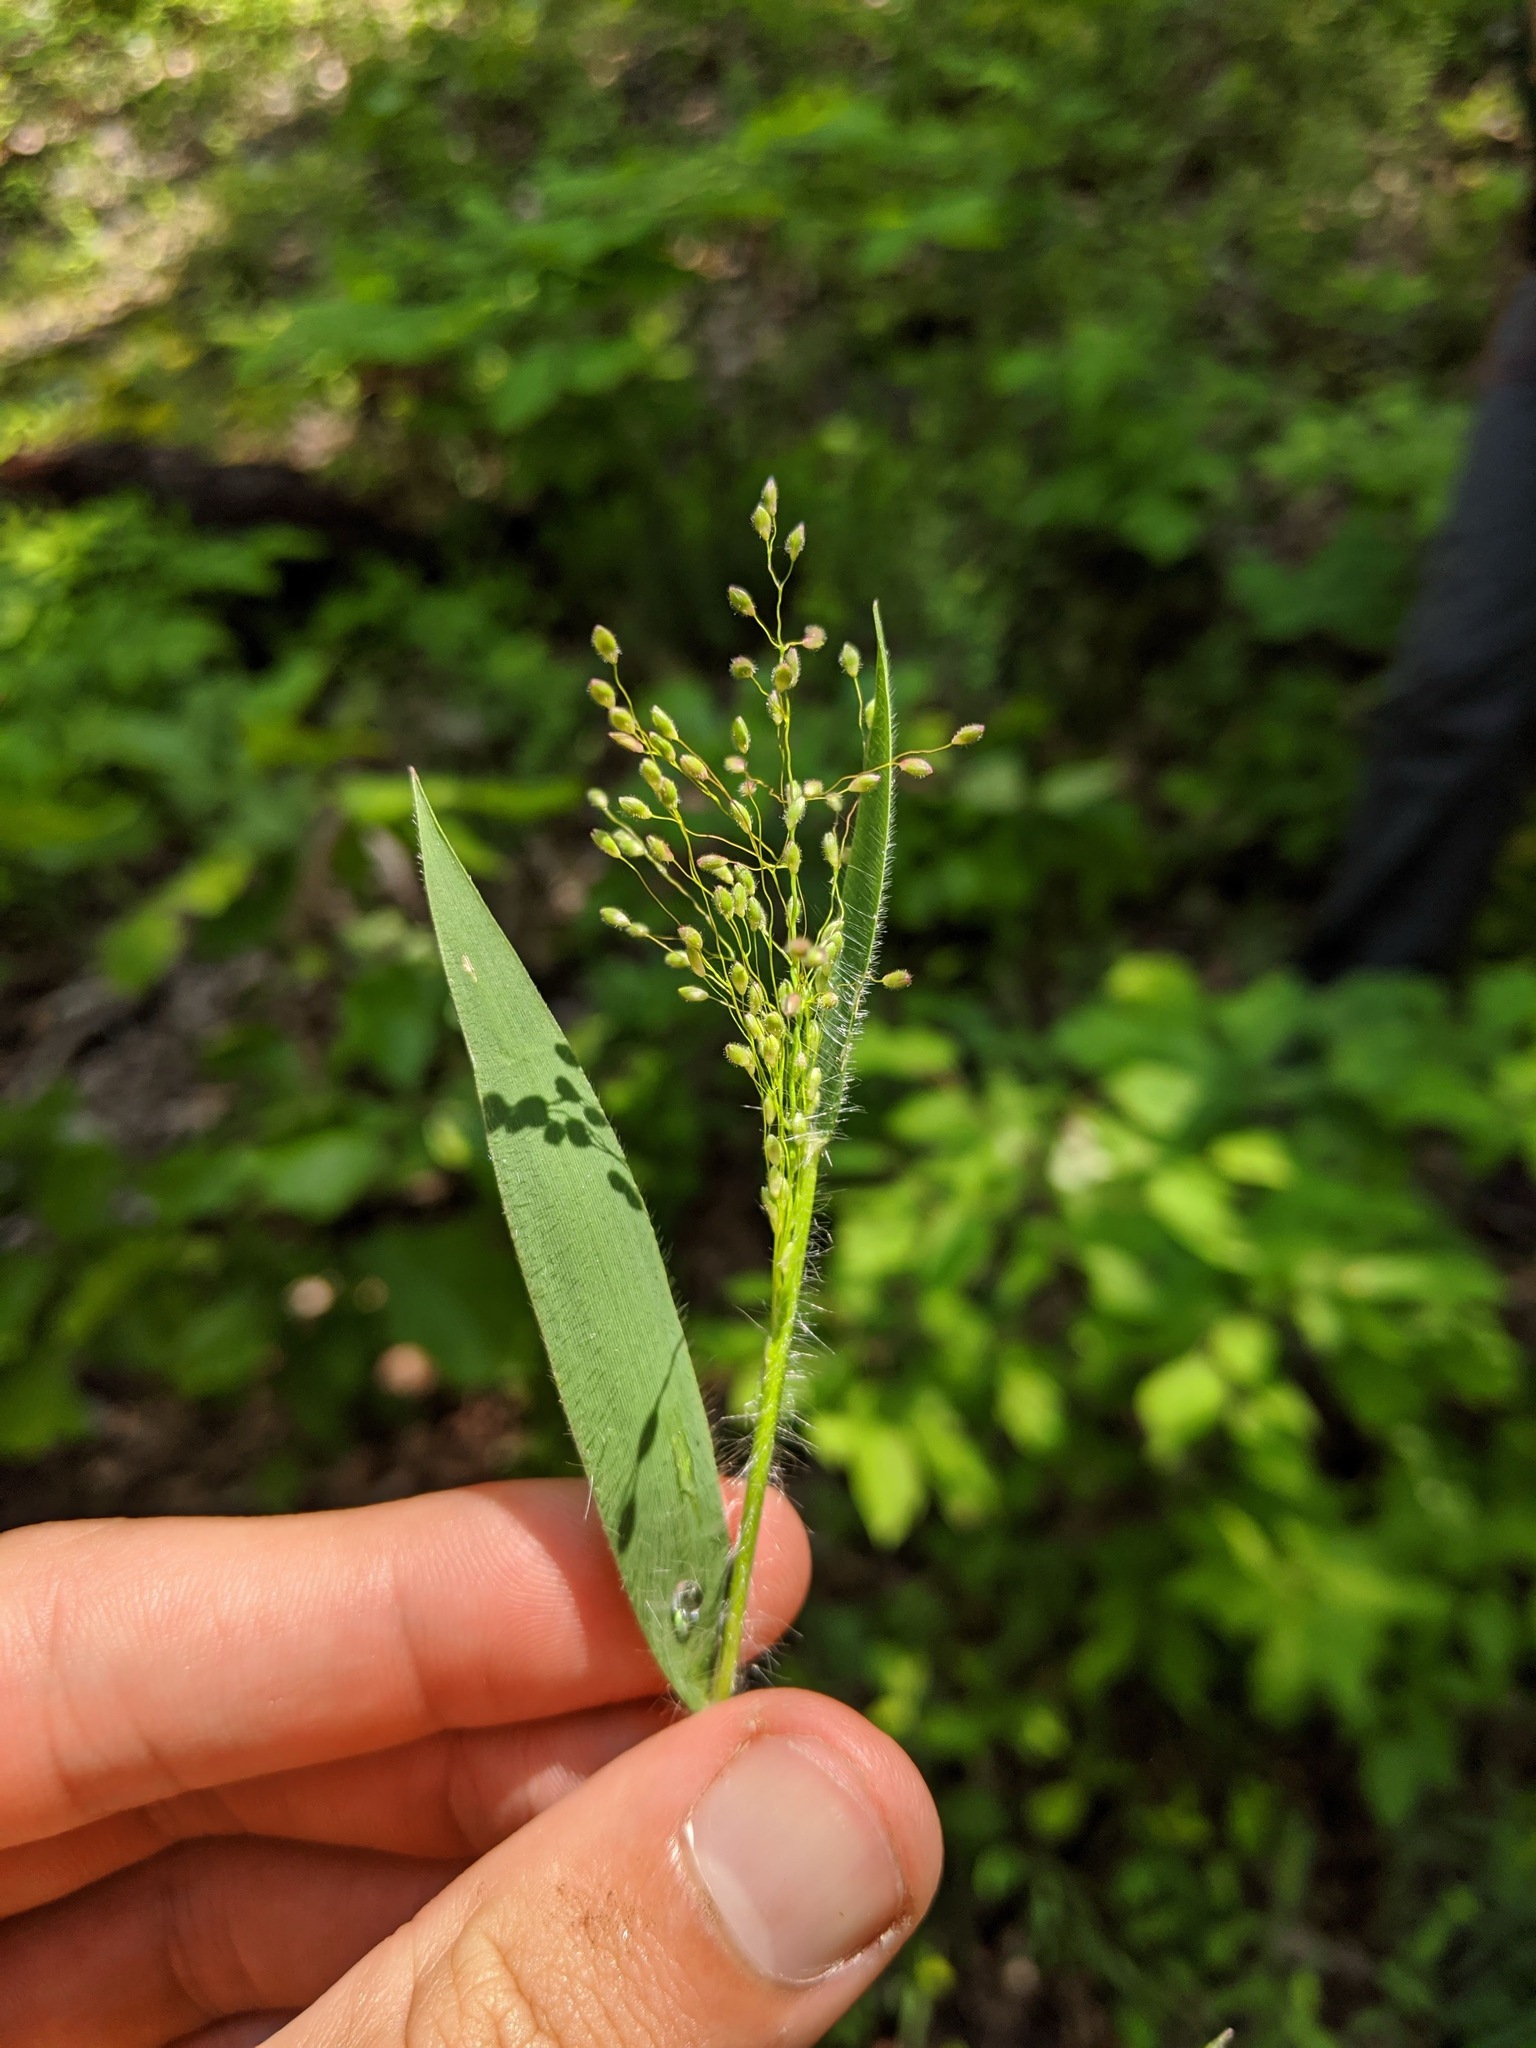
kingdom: Plantae
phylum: Tracheophyta
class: Liliopsida
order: Poales
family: Poaceae
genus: Dichanthelium
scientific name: Dichanthelium villosissimum
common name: White-haired panicgrass
